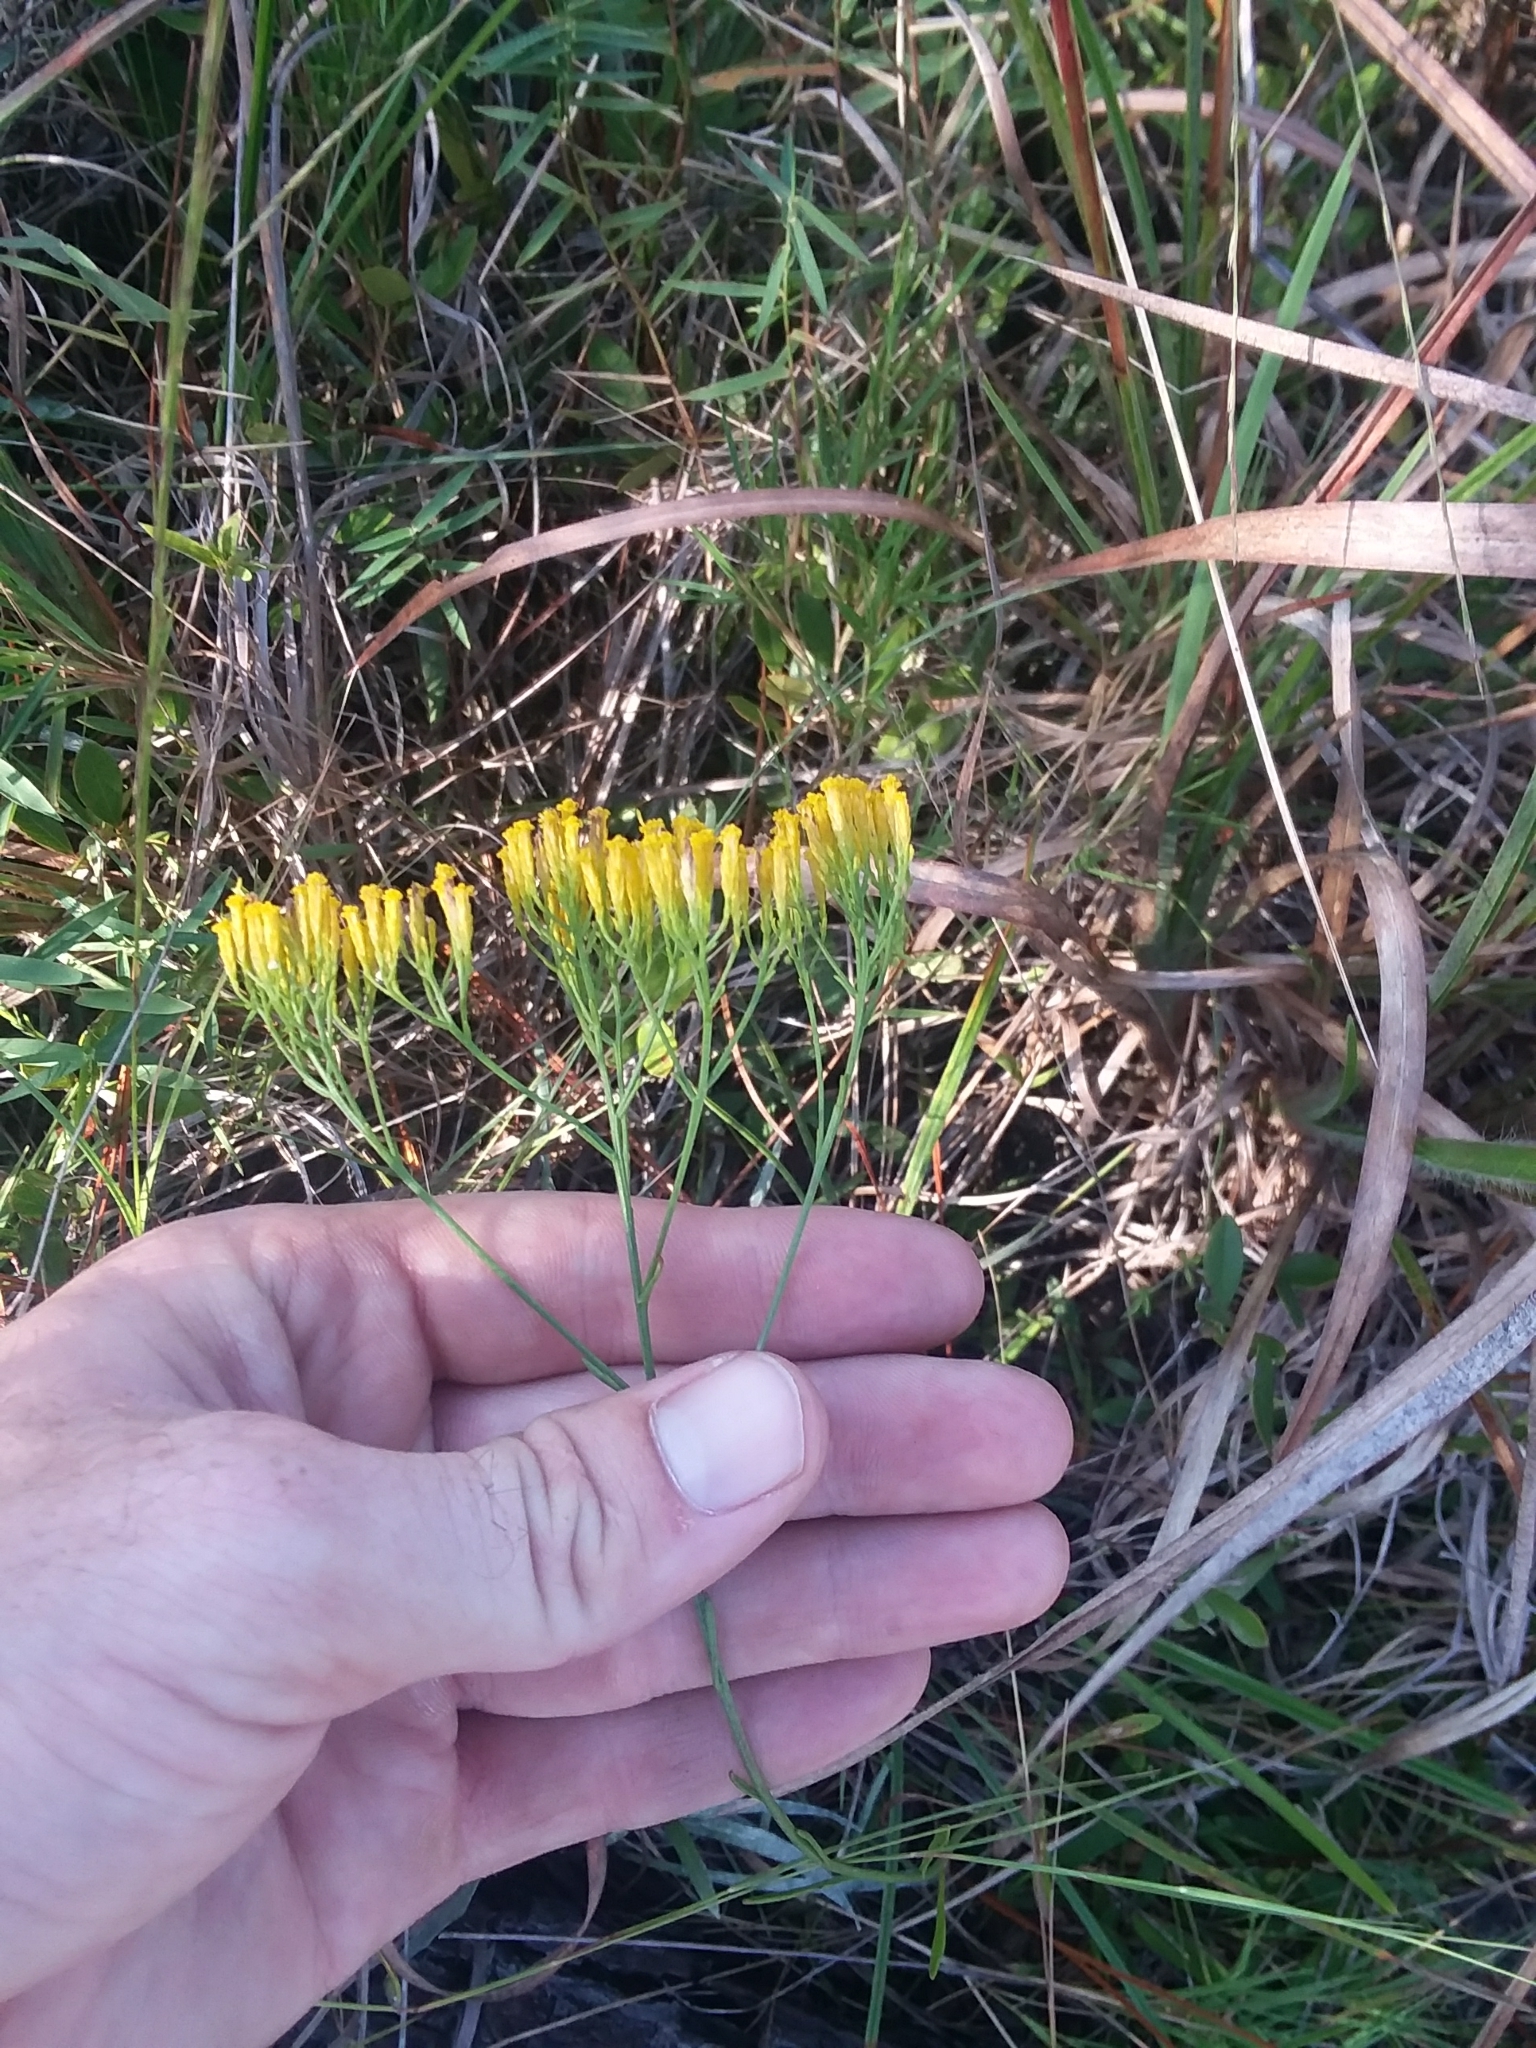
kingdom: Plantae
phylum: Tracheophyta
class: Magnoliopsida
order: Asterales
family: Asteraceae
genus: Bigelowia
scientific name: Bigelowia nudata
